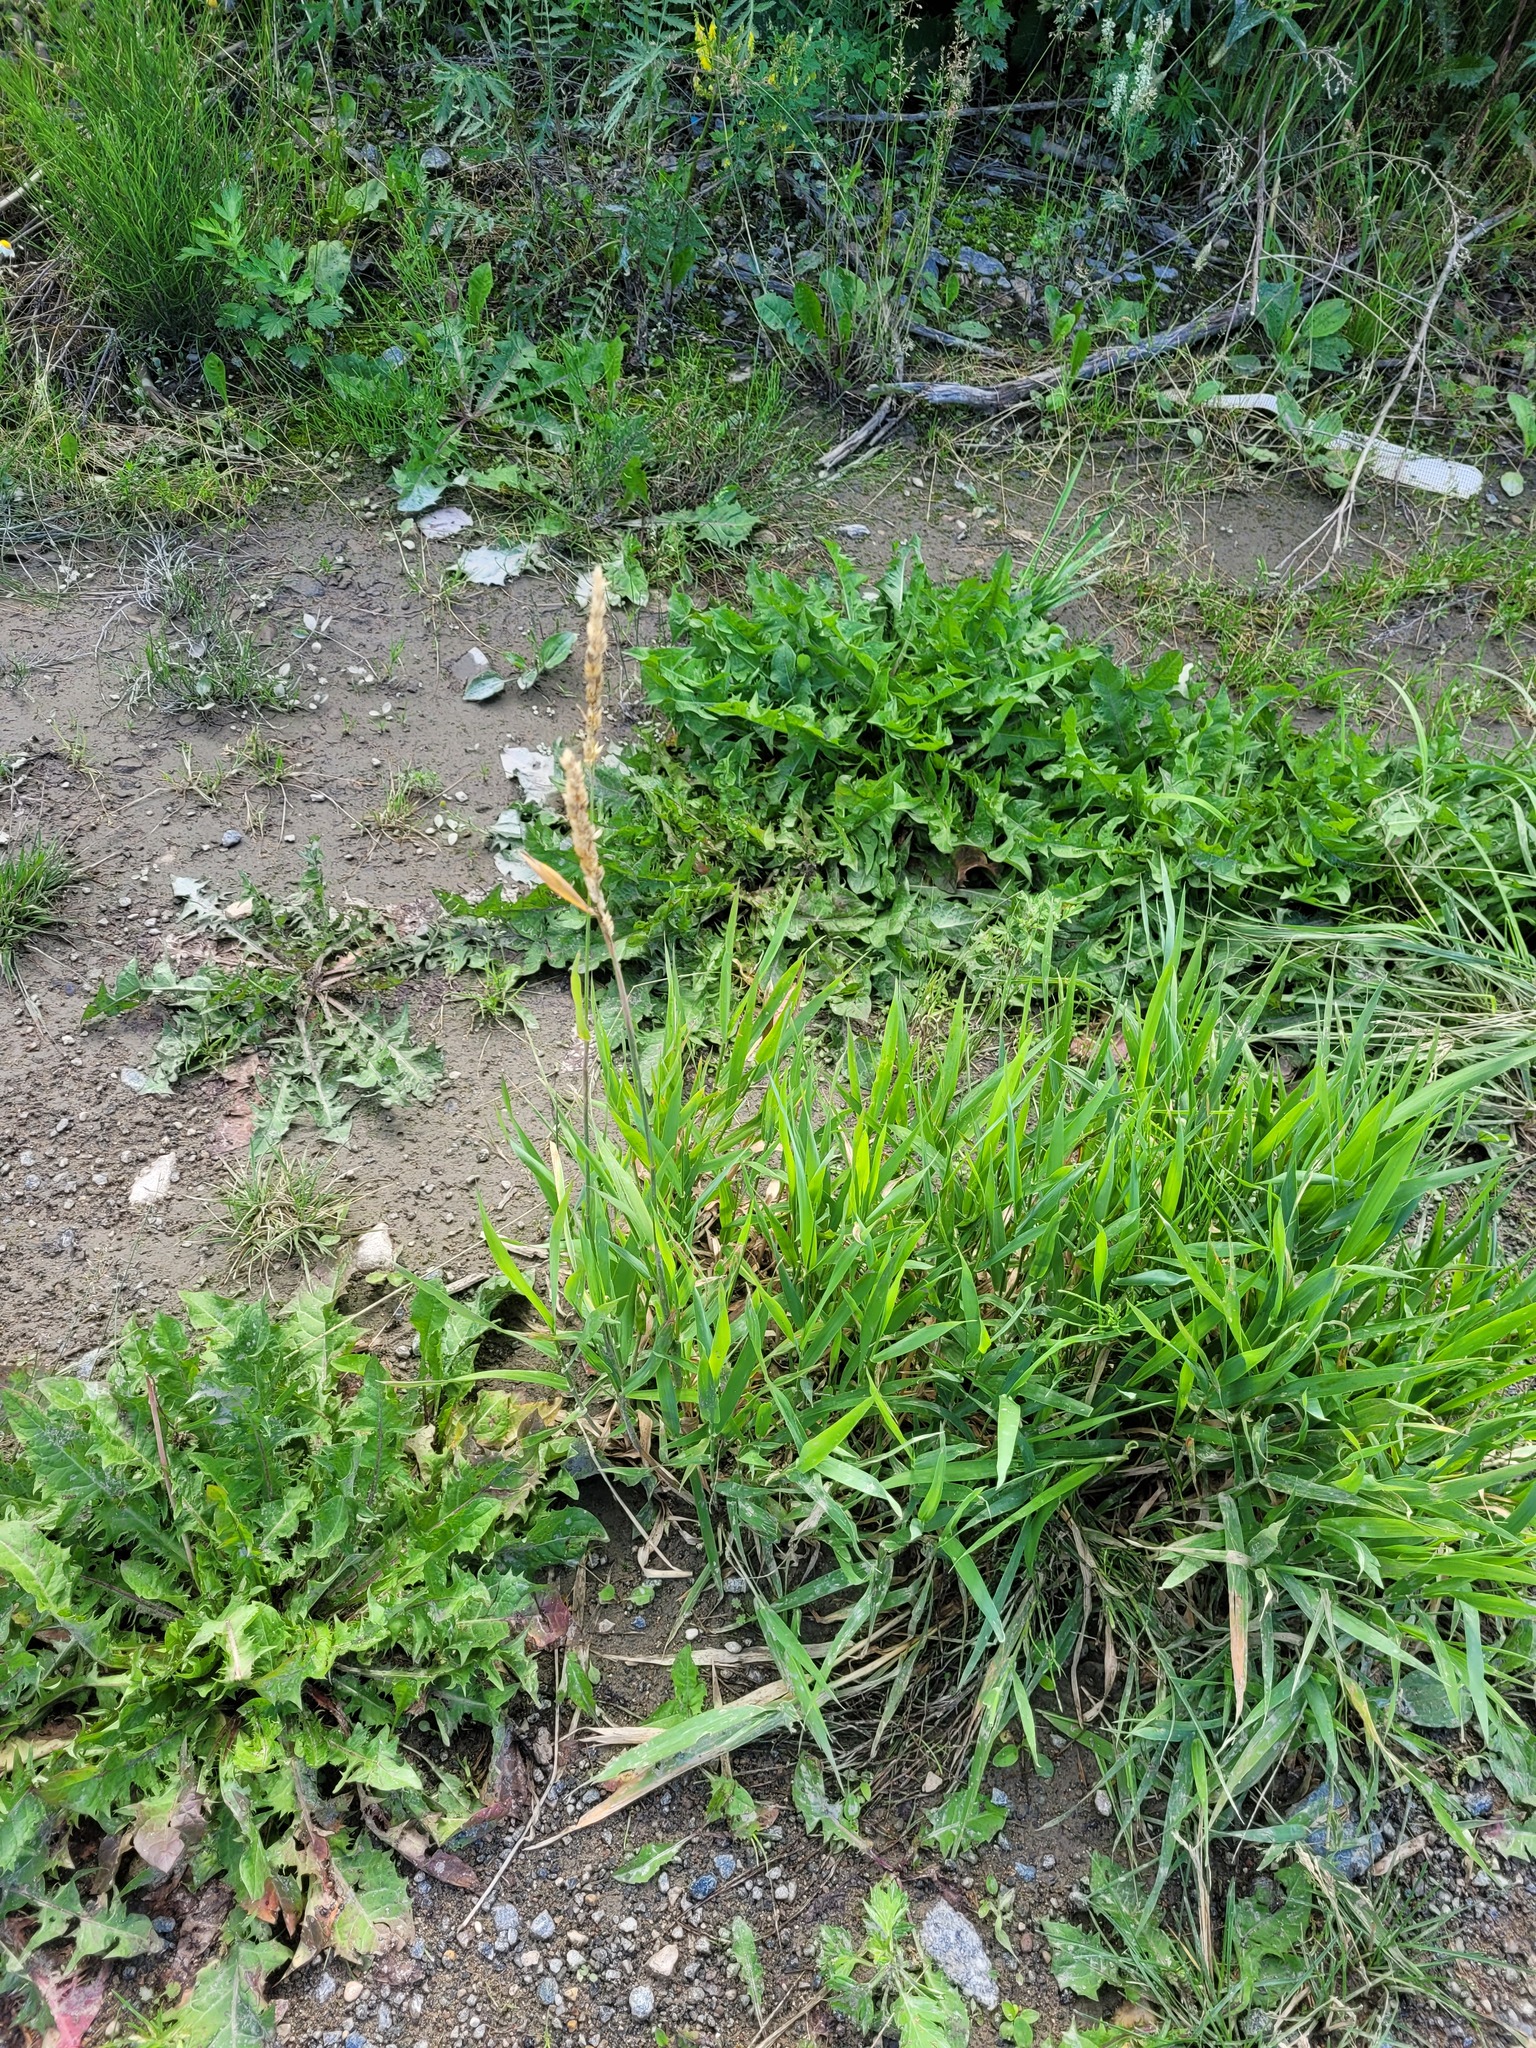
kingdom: Plantae
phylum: Tracheophyta
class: Liliopsida
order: Poales
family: Poaceae
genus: Phalaris
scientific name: Phalaris arundinacea
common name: Reed canary-grass
